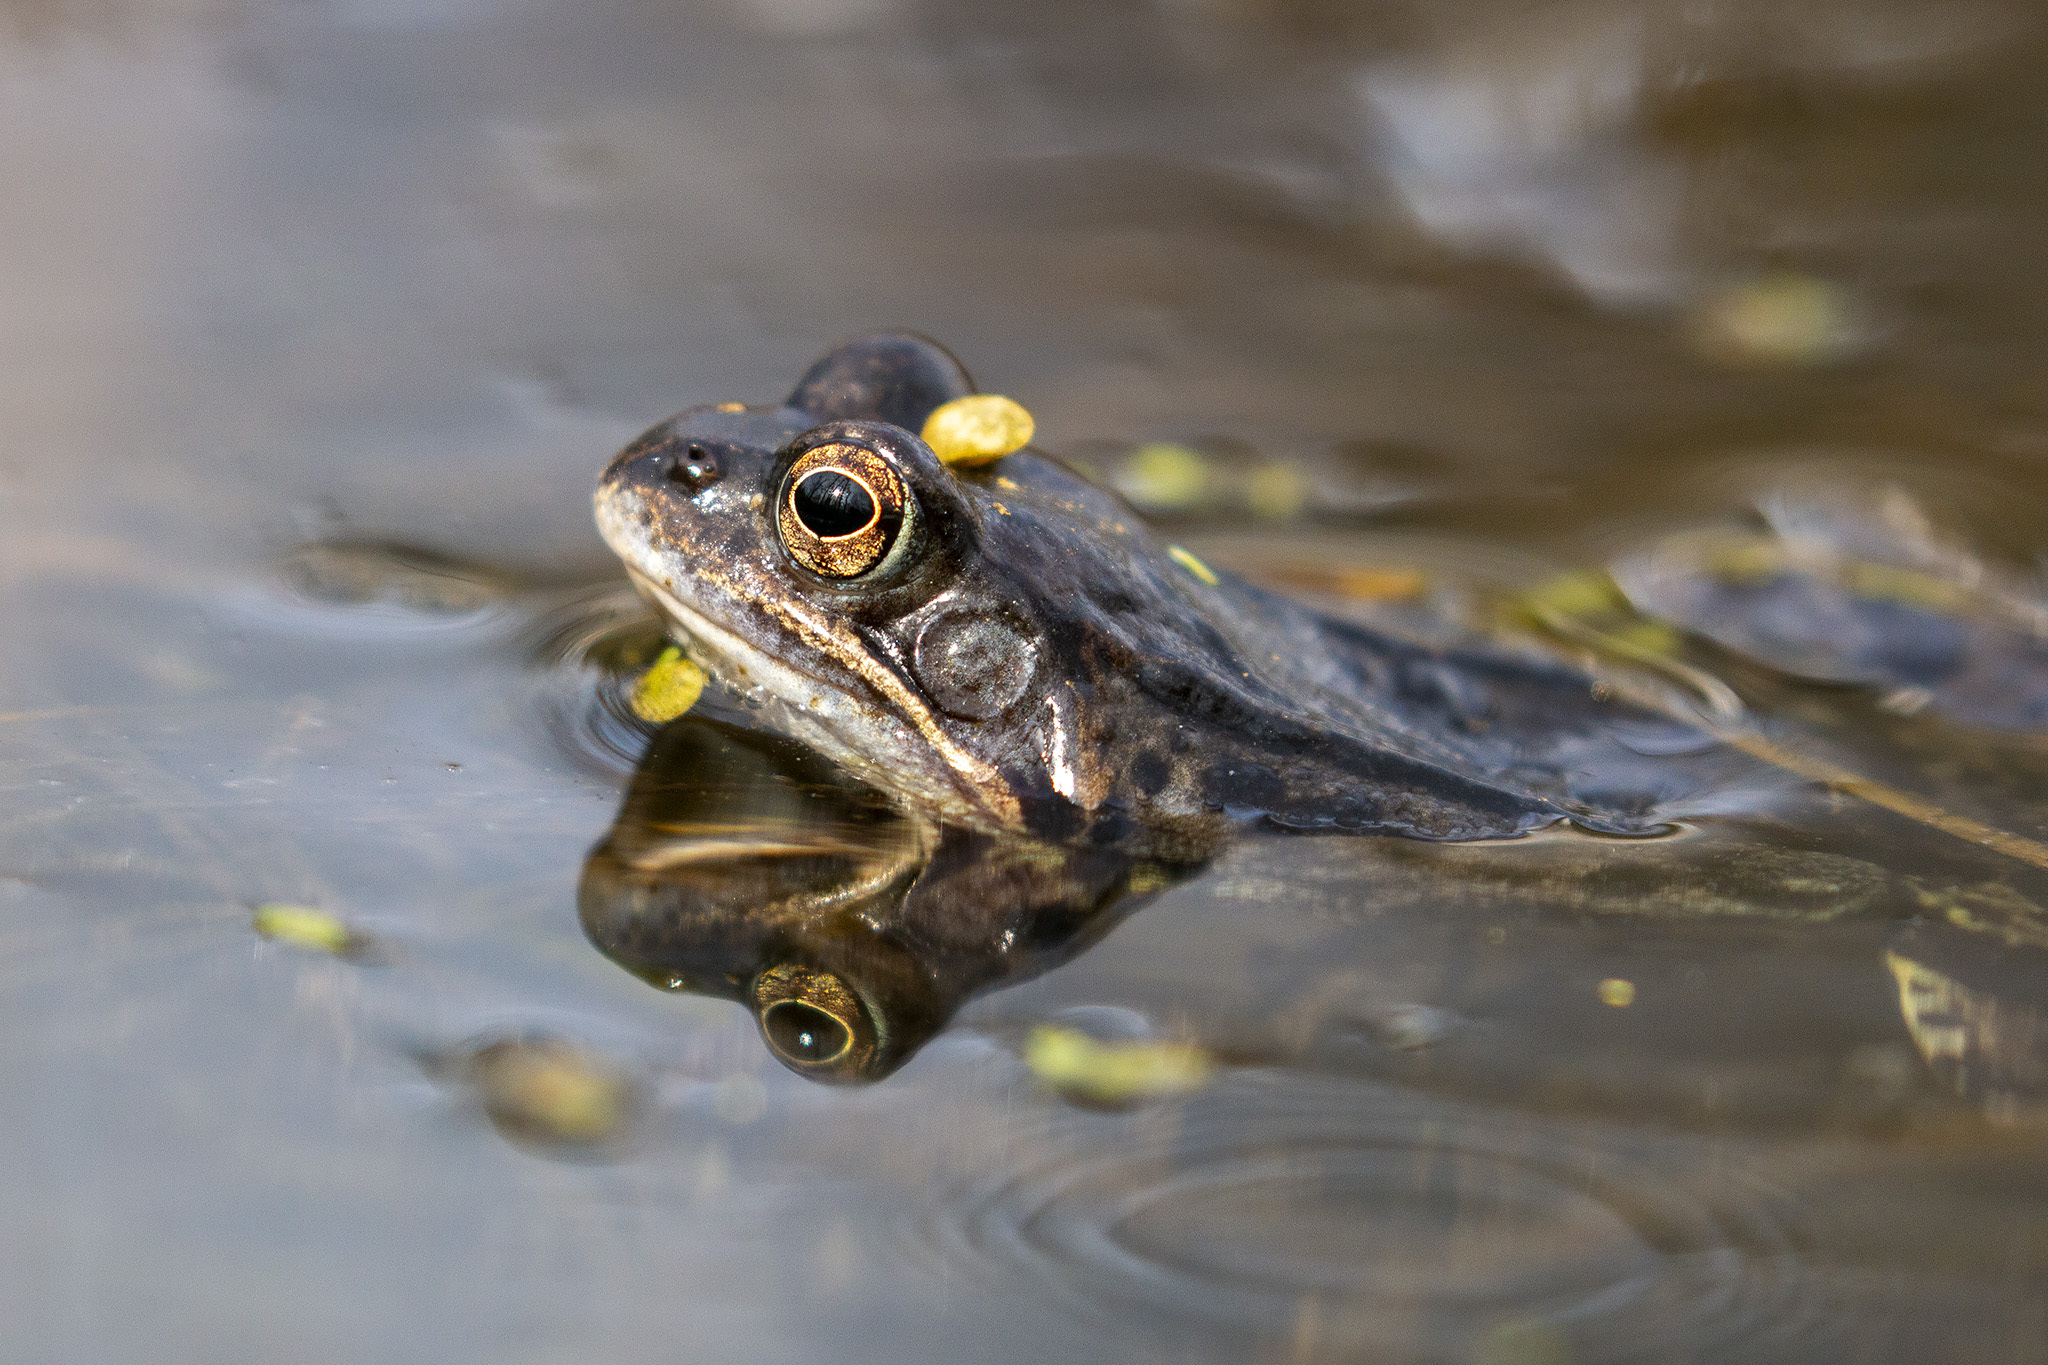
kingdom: Animalia
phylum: Chordata
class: Amphibia
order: Anura
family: Ranidae
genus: Rana
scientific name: Rana temporaria
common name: Common frog
